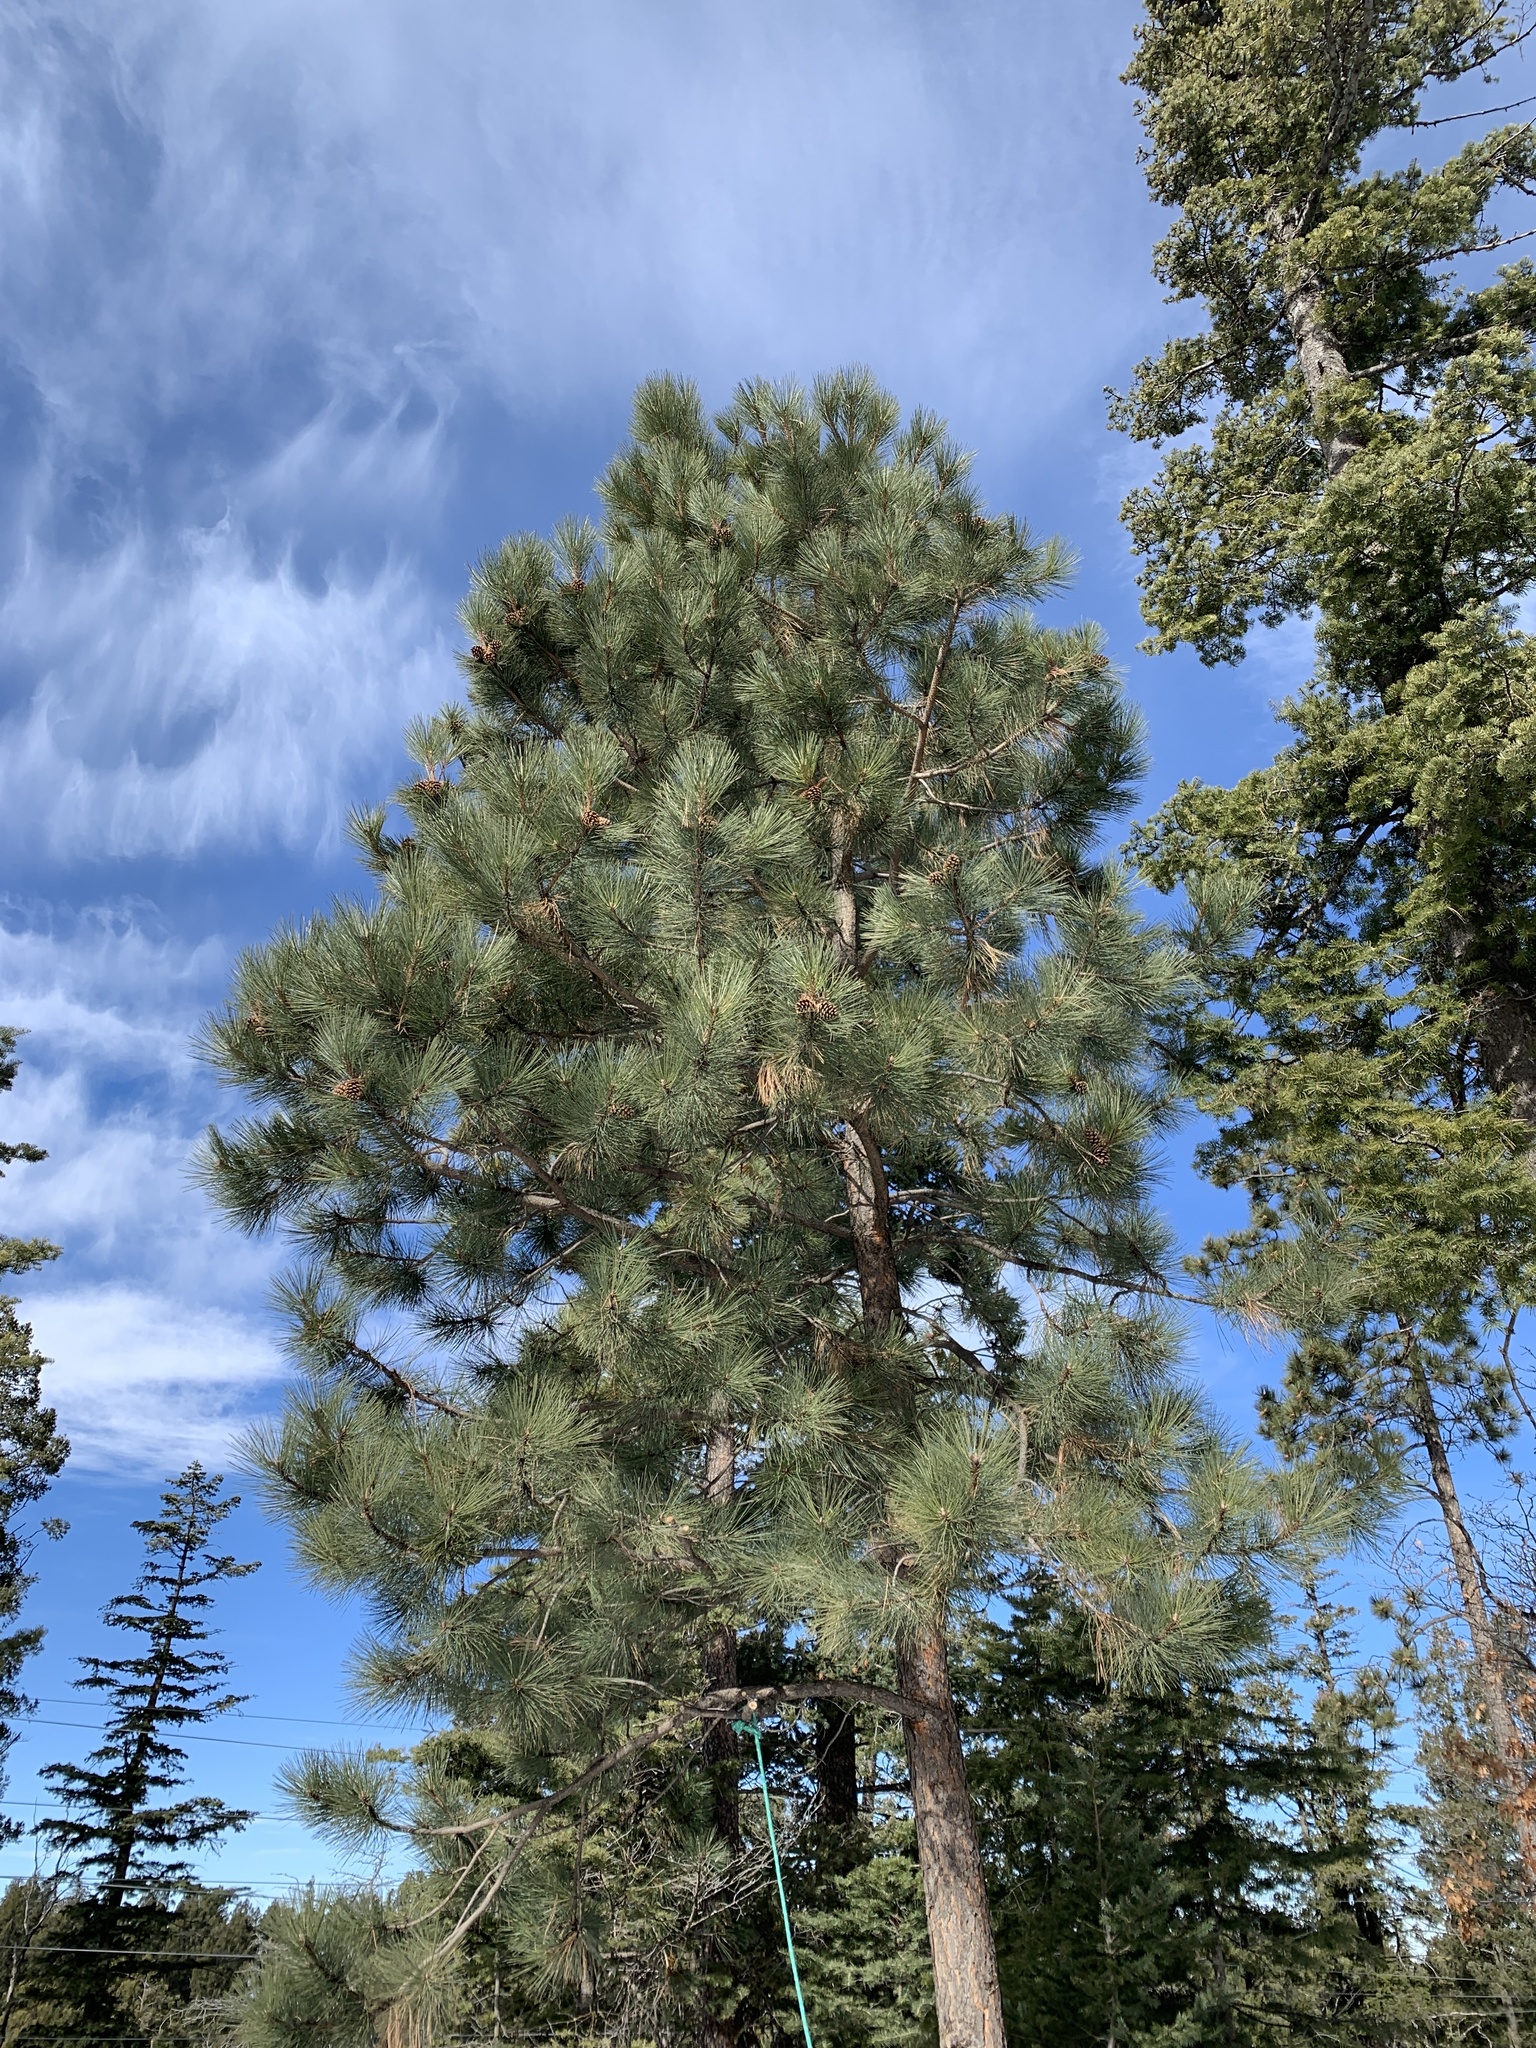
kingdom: Plantae
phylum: Tracheophyta
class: Pinopsida
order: Pinales
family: Pinaceae
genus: Pinus
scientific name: Pinus ponderosa
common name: Western yellow-pine
